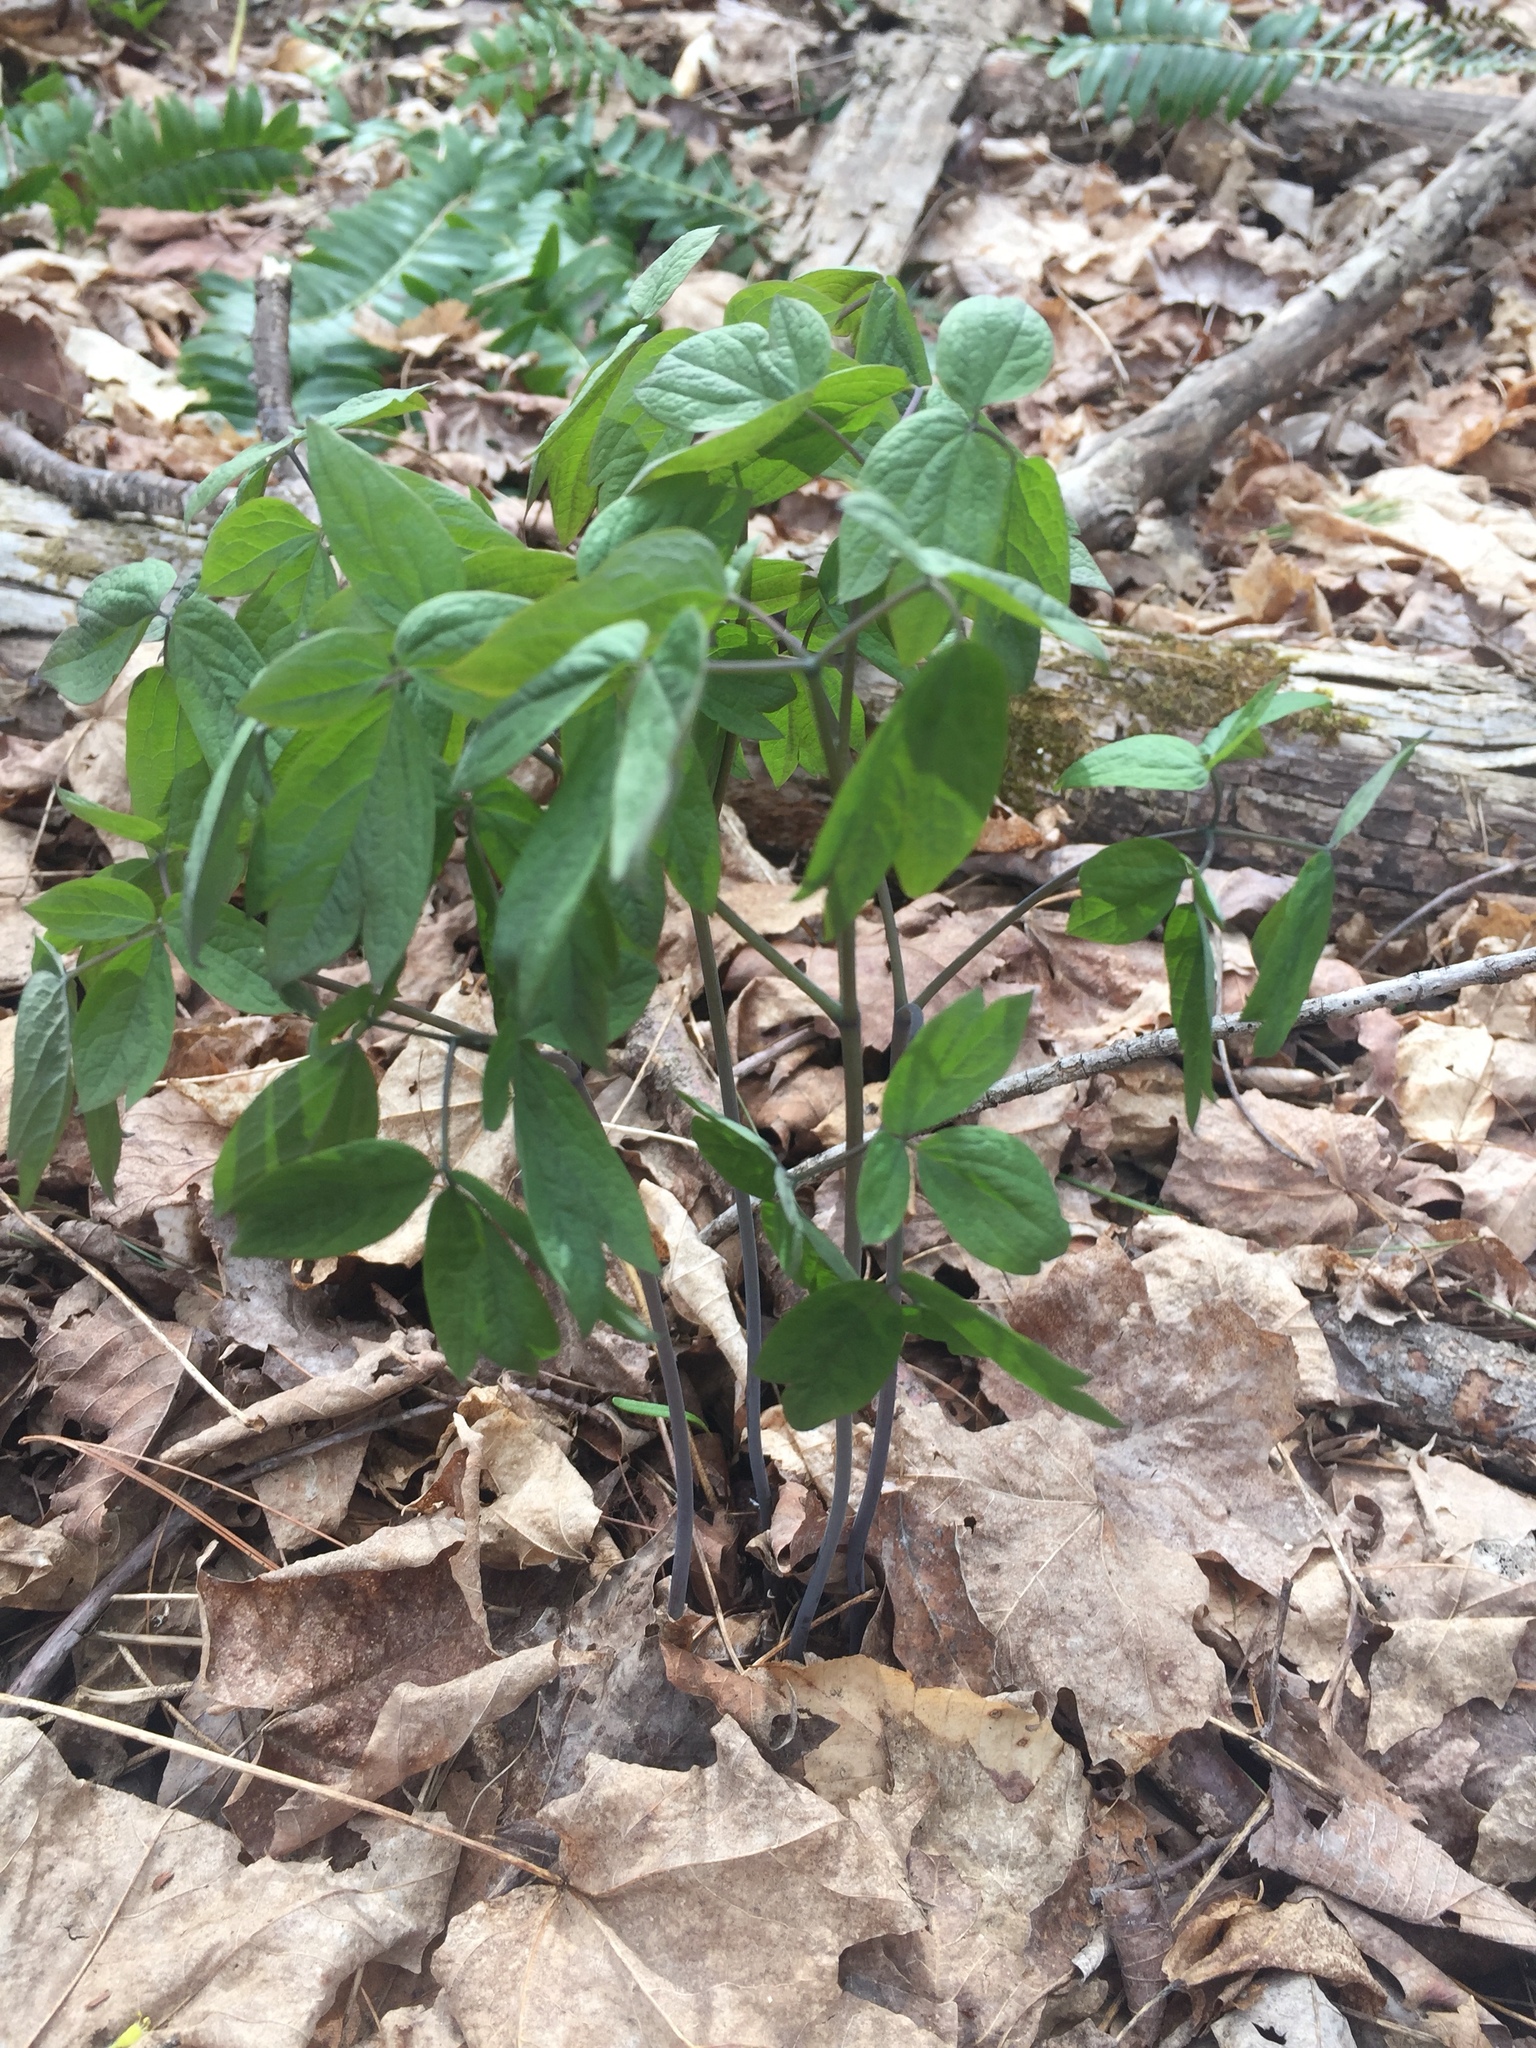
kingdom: Plantae
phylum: Tracheophyta
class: Magnoliopsida
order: Ranunculales
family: Berberidaceae
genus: Caulophyllum
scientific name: Caulophyllum thalictroides
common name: Blue cohosh
